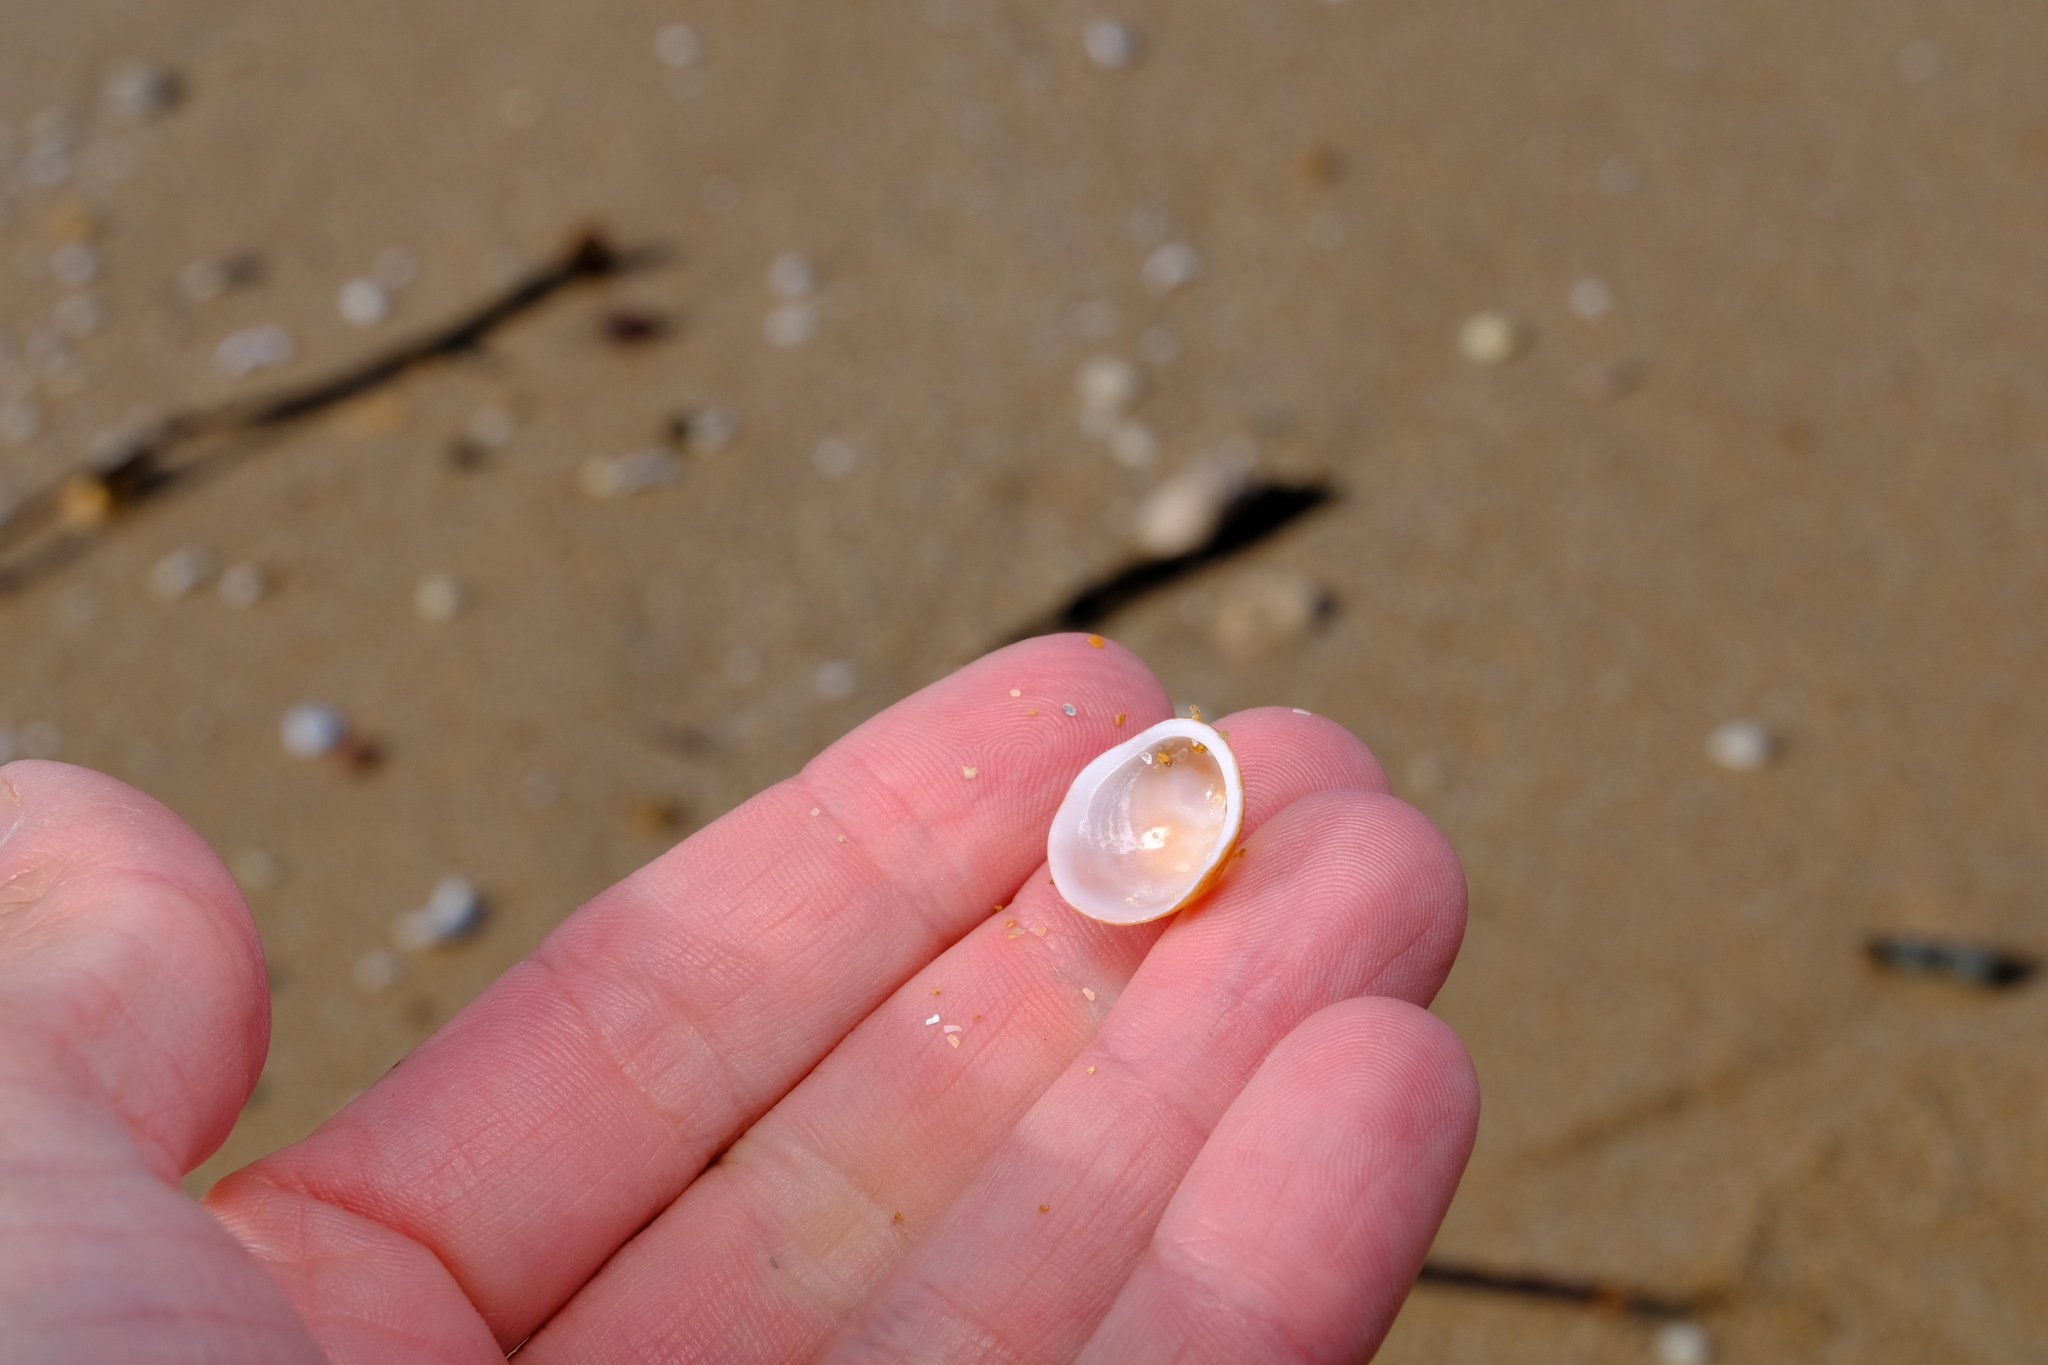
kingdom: Animalia
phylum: Mollusca
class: Gastropoda
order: Littorinimorpha
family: Hipponicidae
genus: Sabia
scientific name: Sabia australis
